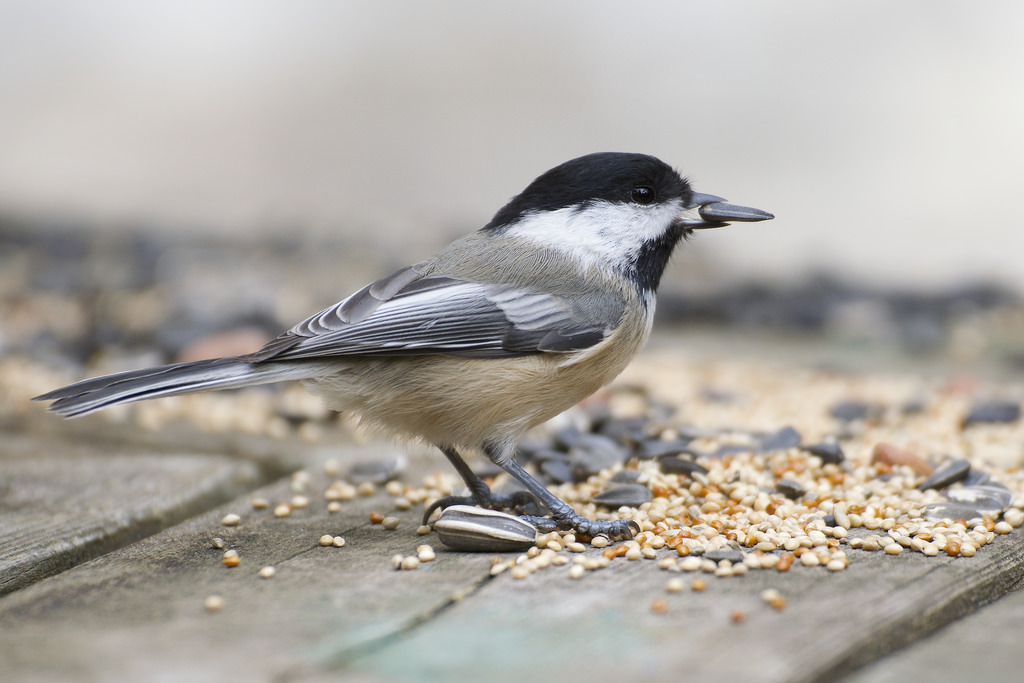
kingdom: Animalia
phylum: Chordata
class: Aves
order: Passeriformes
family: Paridae
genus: Poecile
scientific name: Poecile atricapillus
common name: Black-capped chickadee
